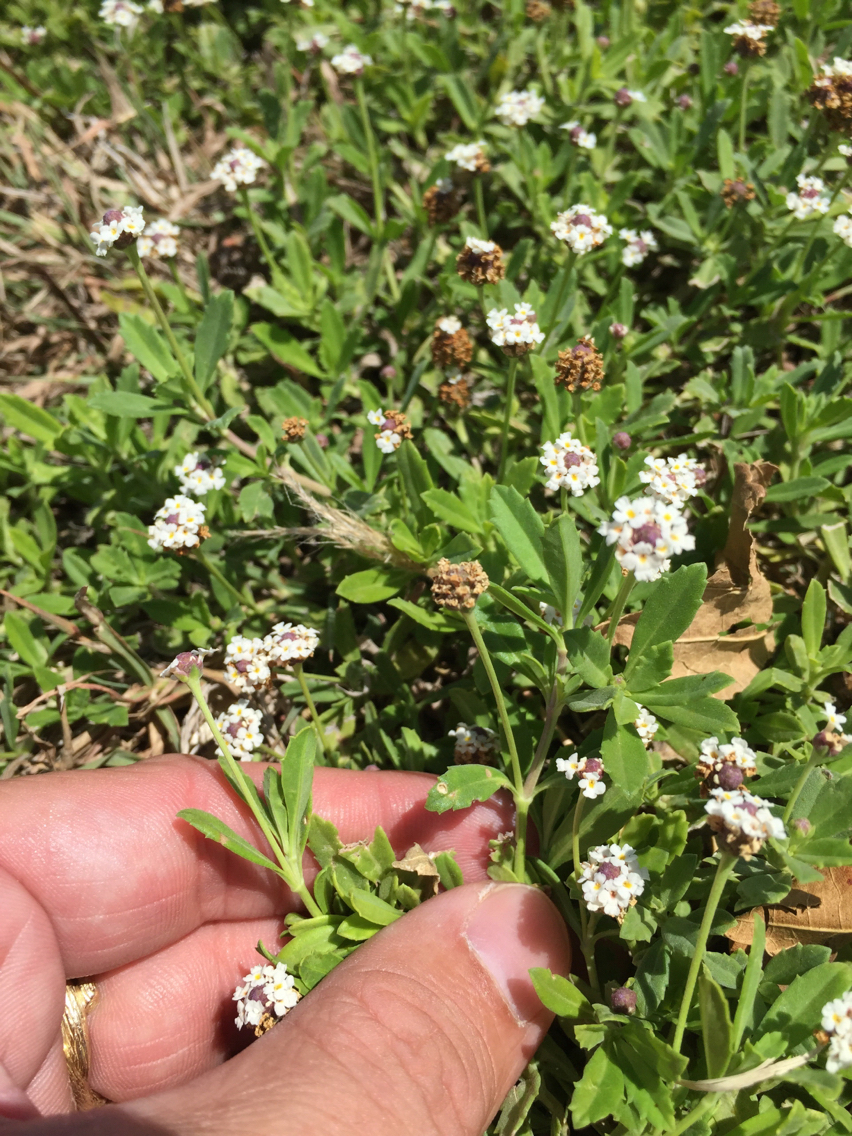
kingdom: Plantae
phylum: Tracheophyta
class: Magnoliopsida
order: Lamiales
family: Verbenaceae
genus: Phyla
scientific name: Phyla nodiflora
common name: Frogfruit
